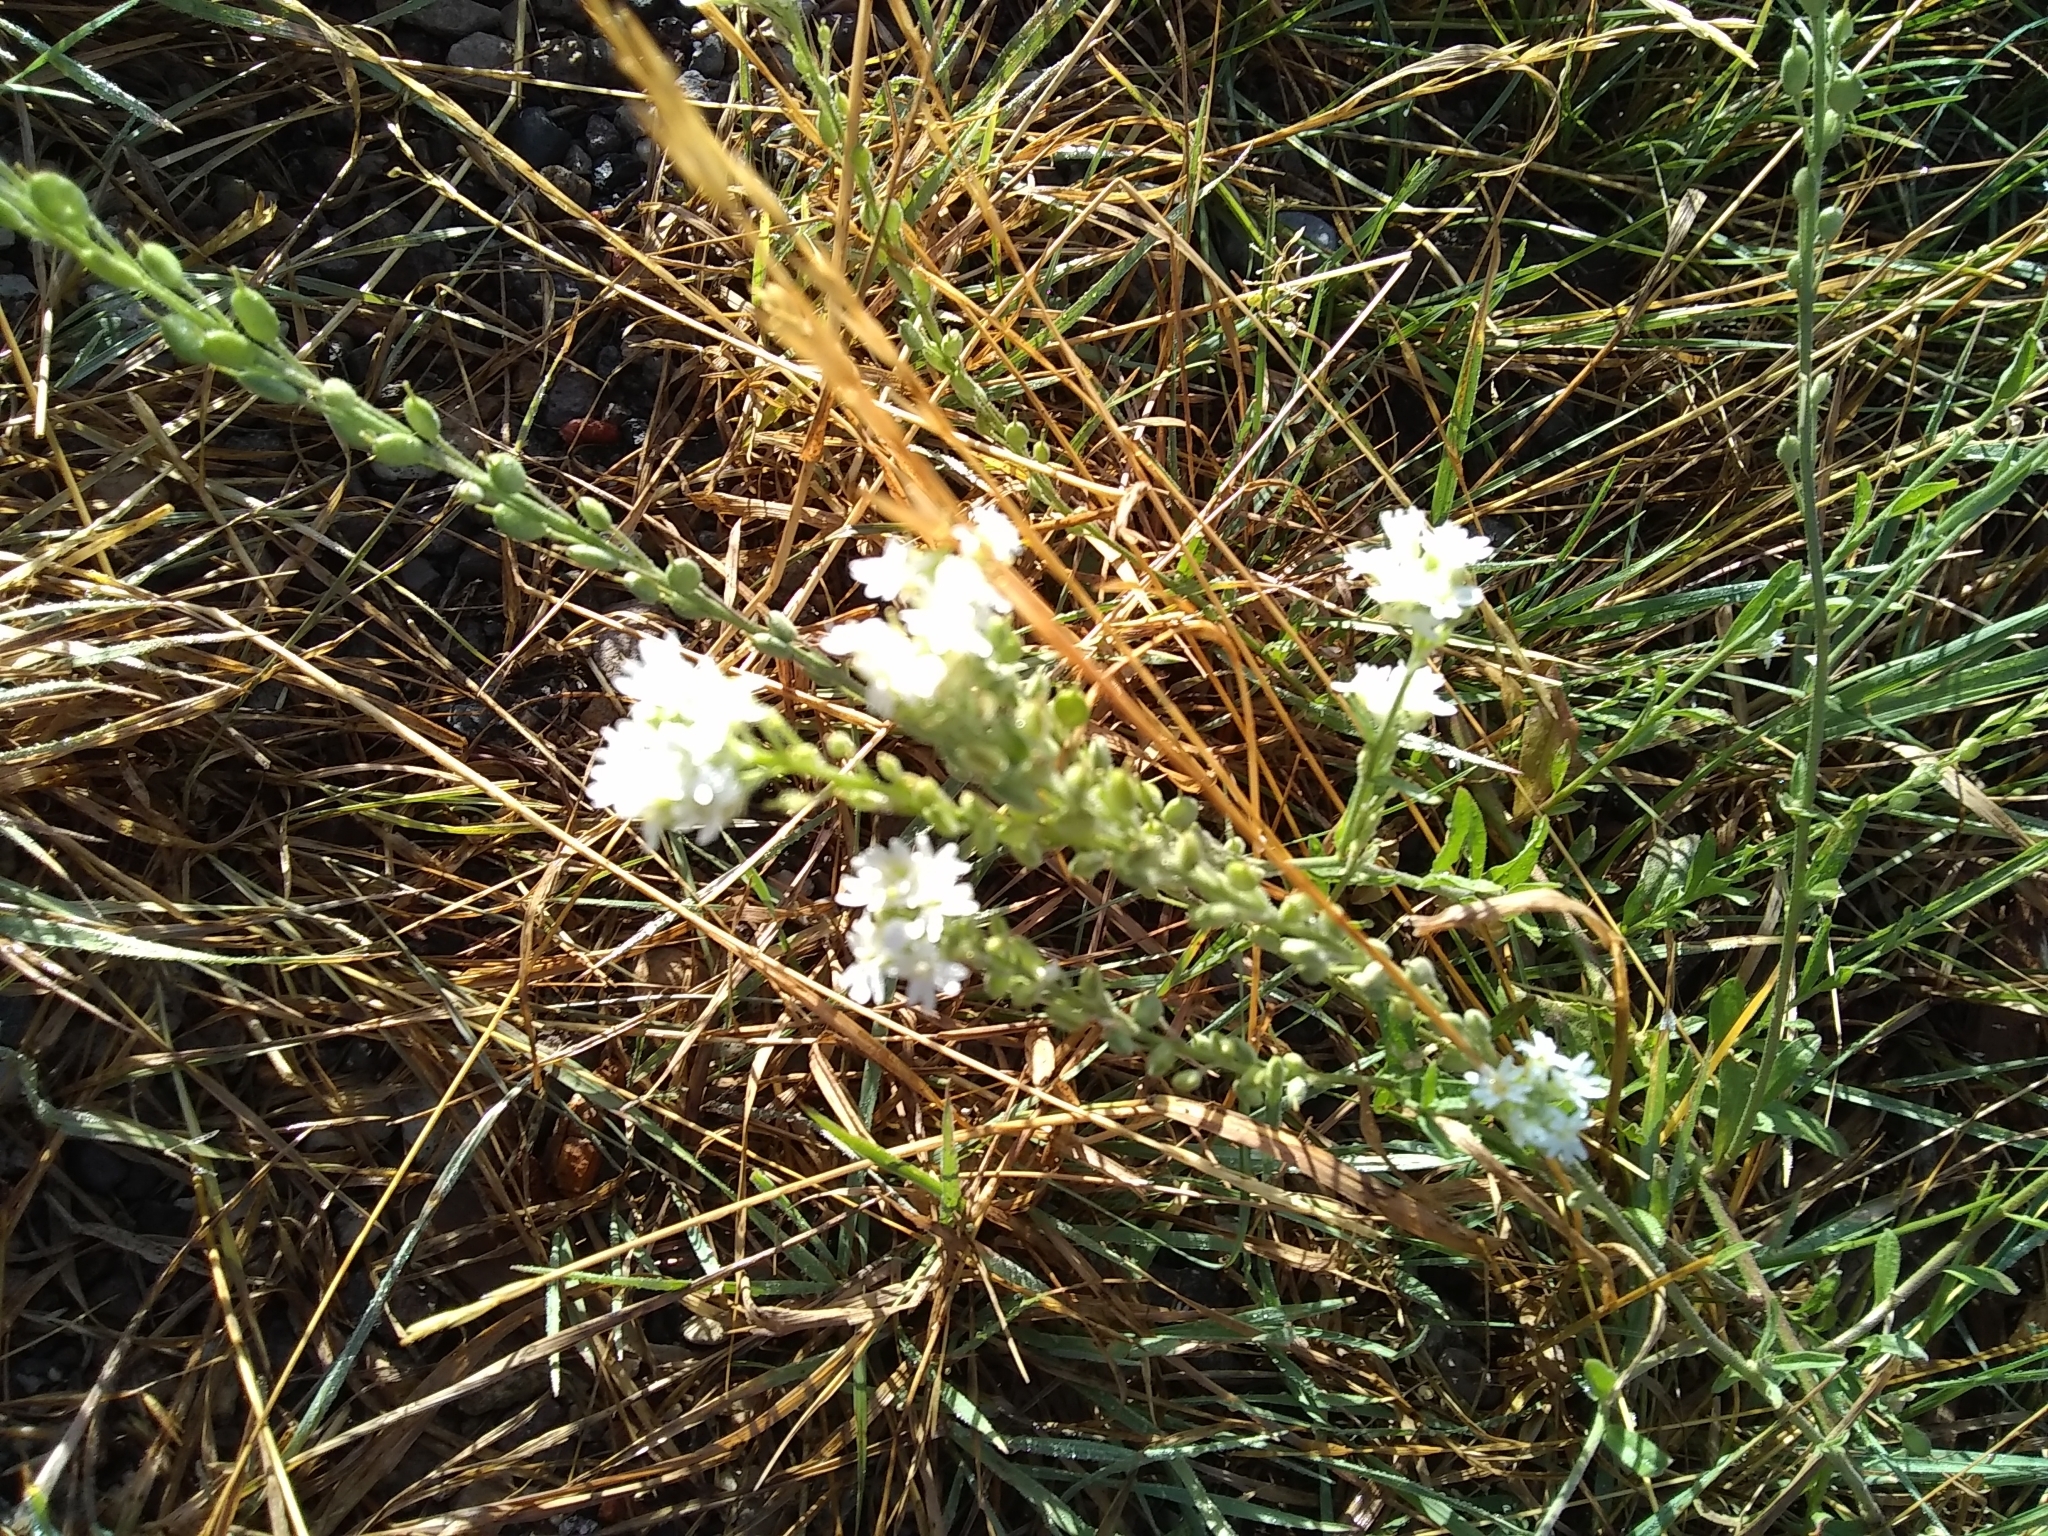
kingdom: Plantae
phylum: Tracheophyta
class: Magnoliopsida
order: Brassicales
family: Brassicaceae
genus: Berteroa
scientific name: Berteroa incana
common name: Hoary alison
